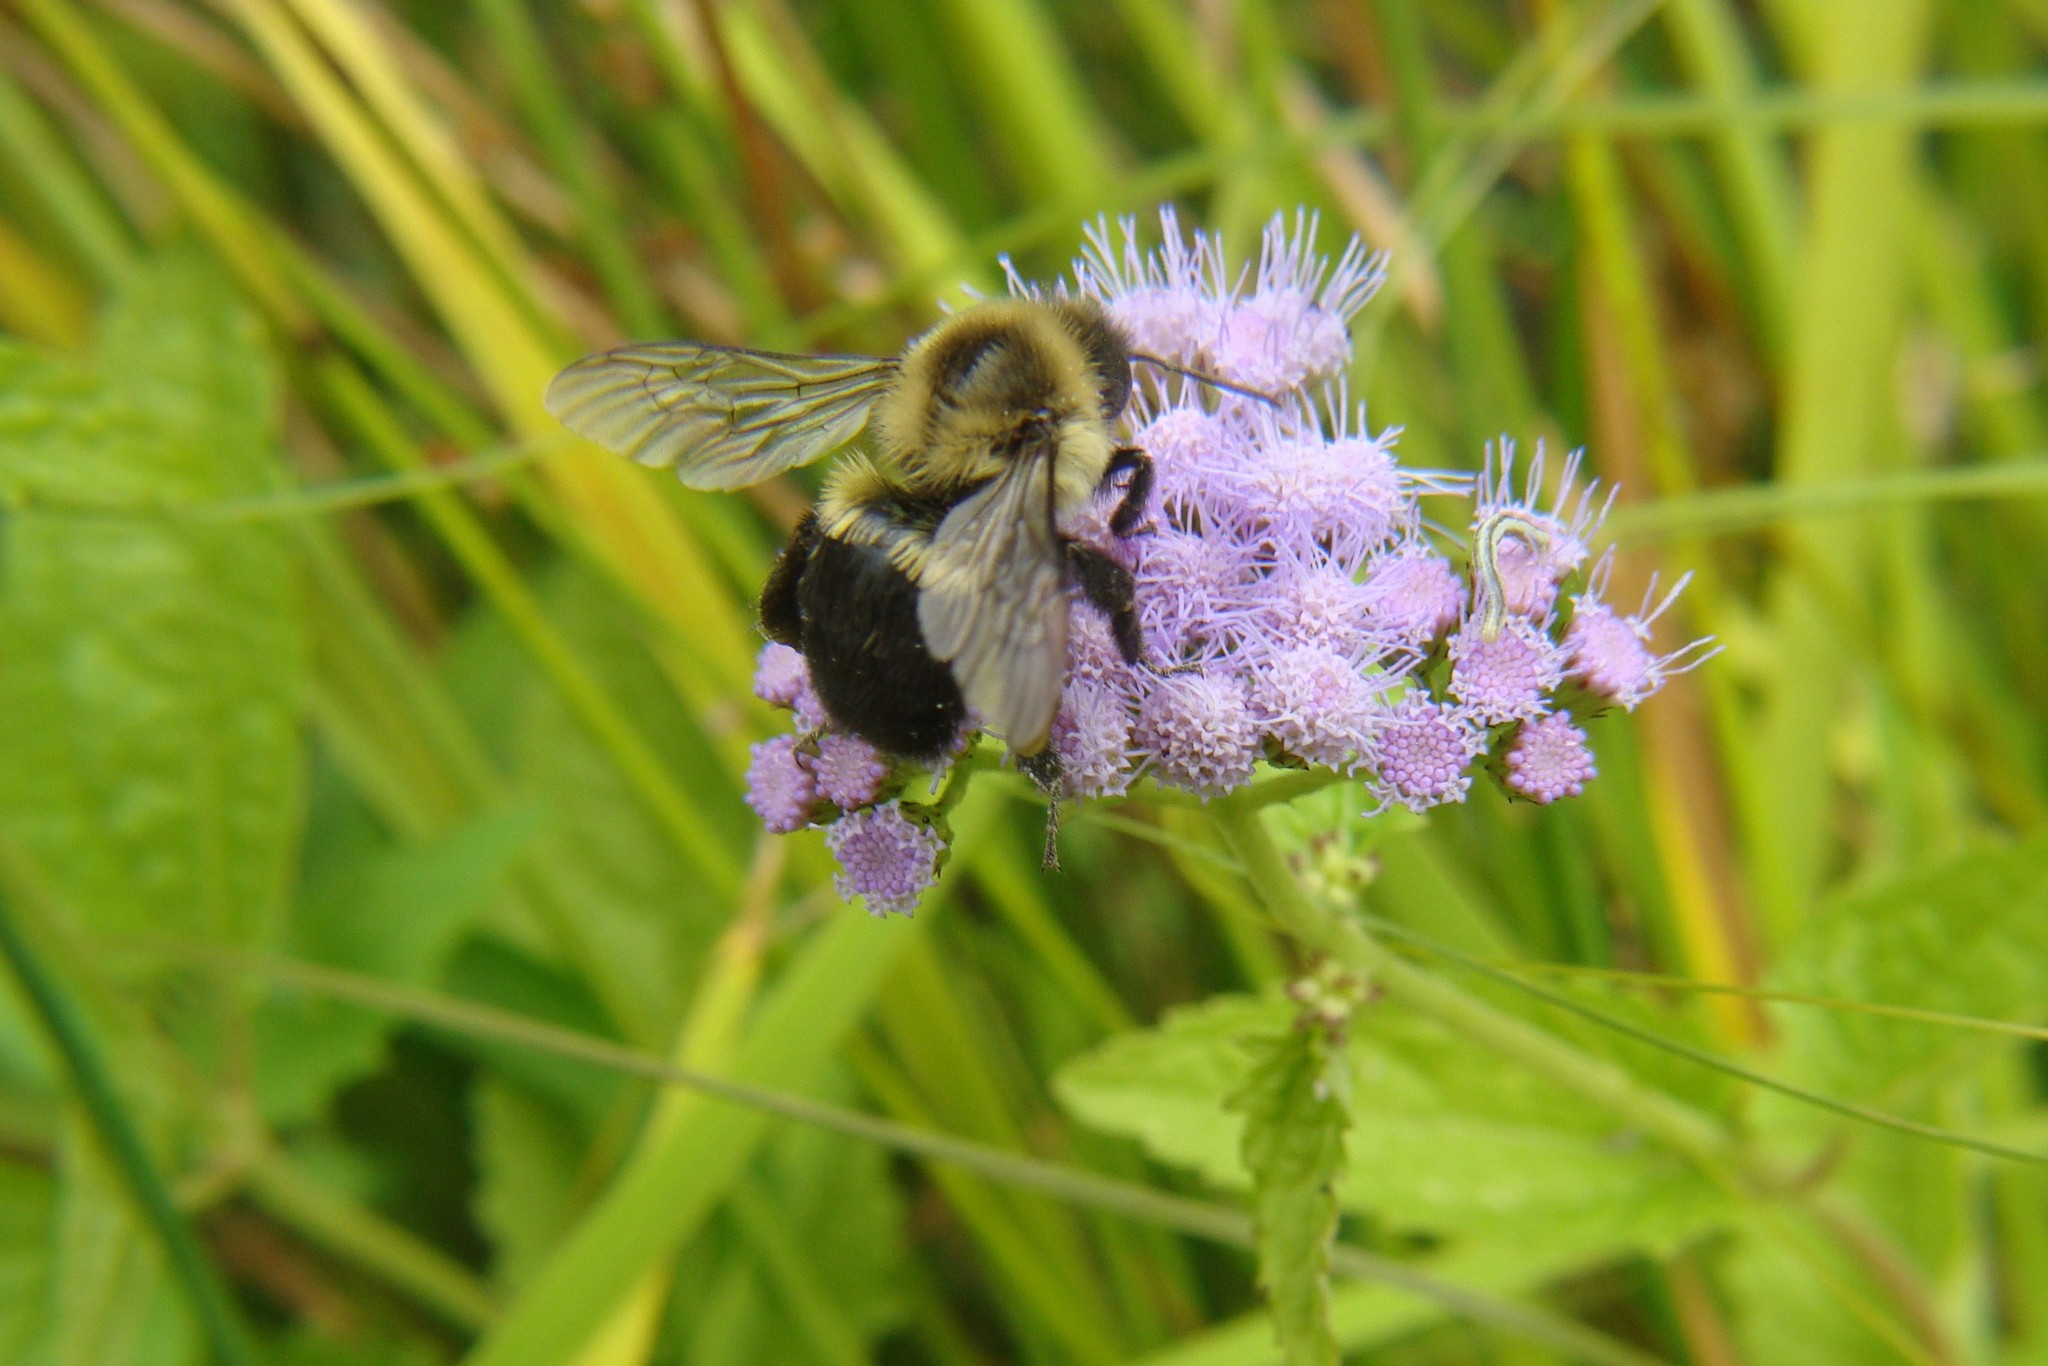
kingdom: Animalia
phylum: Arthropoda
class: Insecta
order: Hymenoptera
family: Apidae
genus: Bombus
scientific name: Bombus impatiens
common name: Common eastern bumble bee
